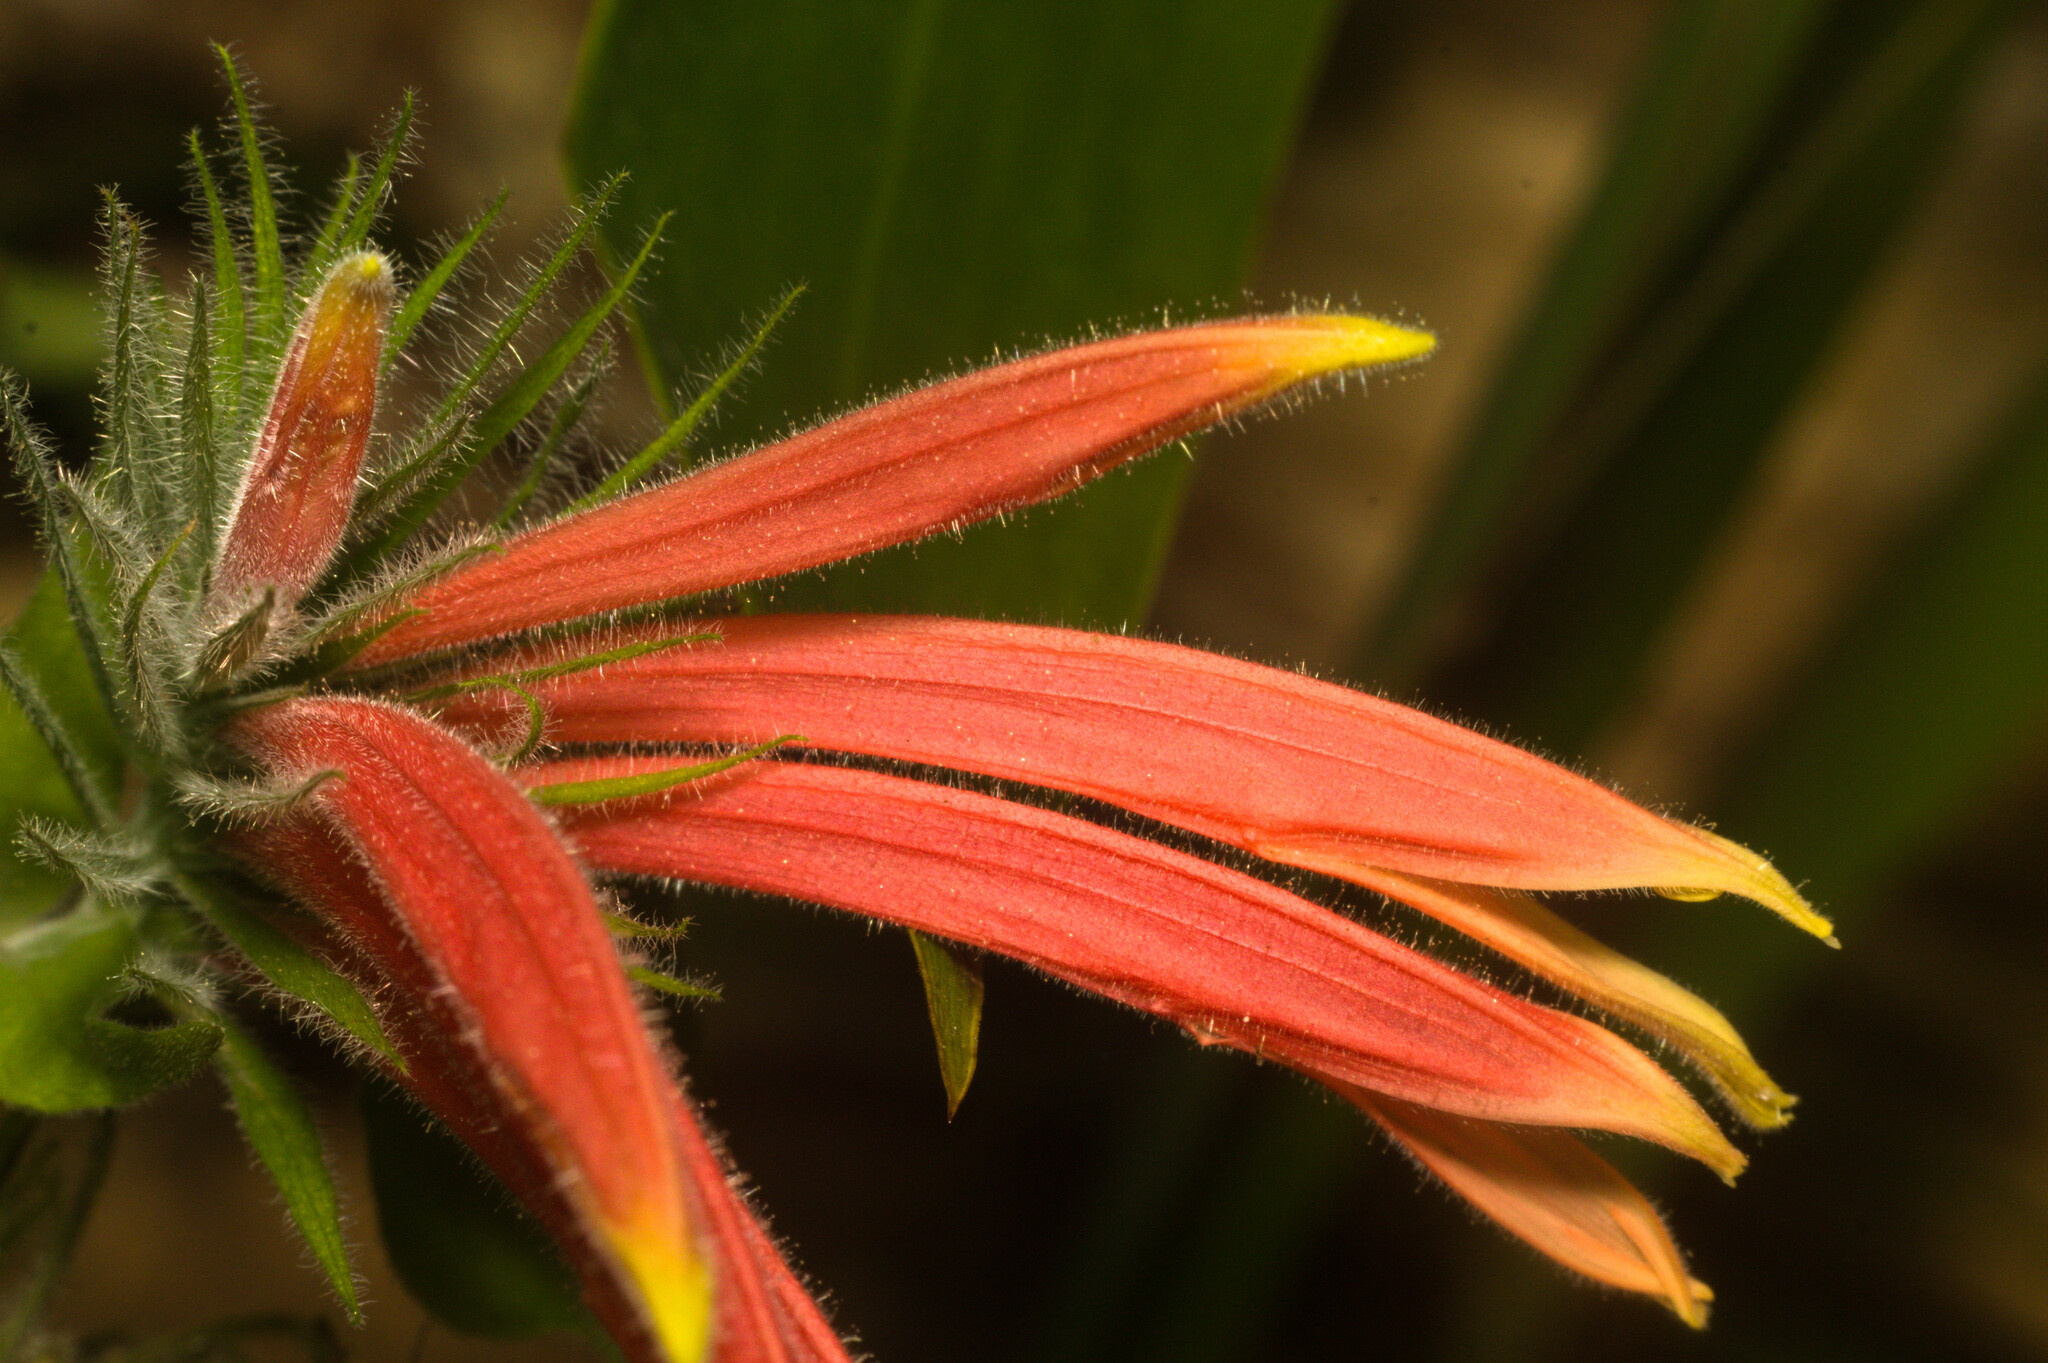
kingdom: Plantae
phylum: Tracheophyta
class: Magnoliopsida
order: Lamiales
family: Acanthaceae
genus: Justicia
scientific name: Justicia
